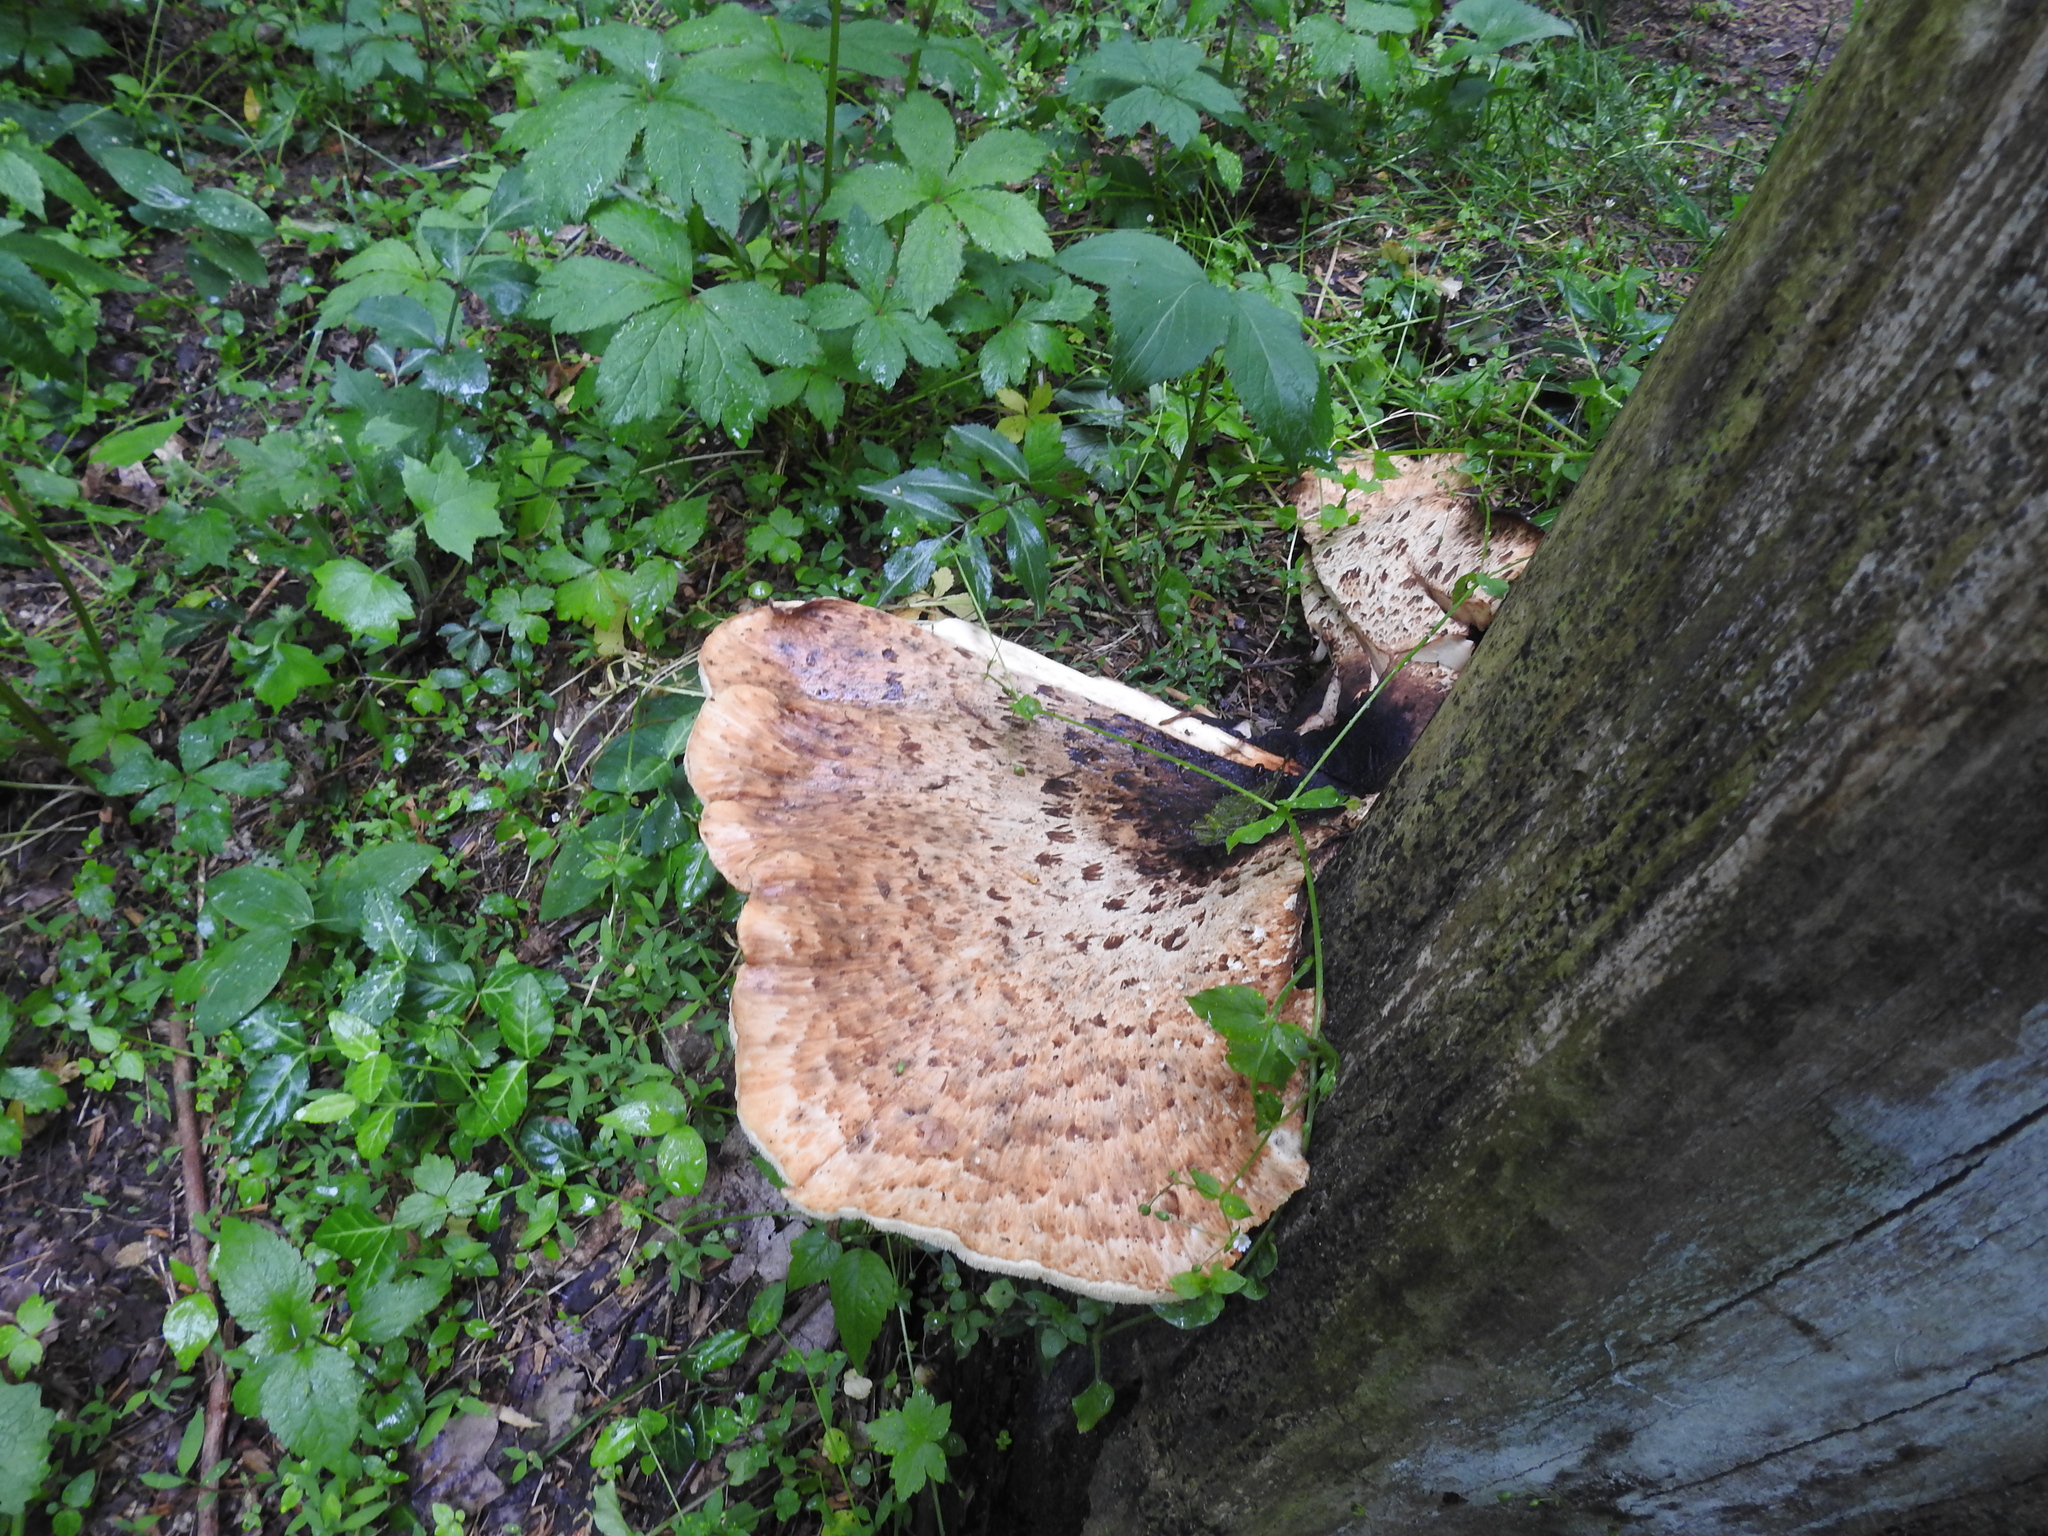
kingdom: Fungi
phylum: Basidiomycota
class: Agaricomycetes
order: Polyporales
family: Polyporaceae
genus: Cerioporus
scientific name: Cerioporus squamosus
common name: Dryad's saddle
